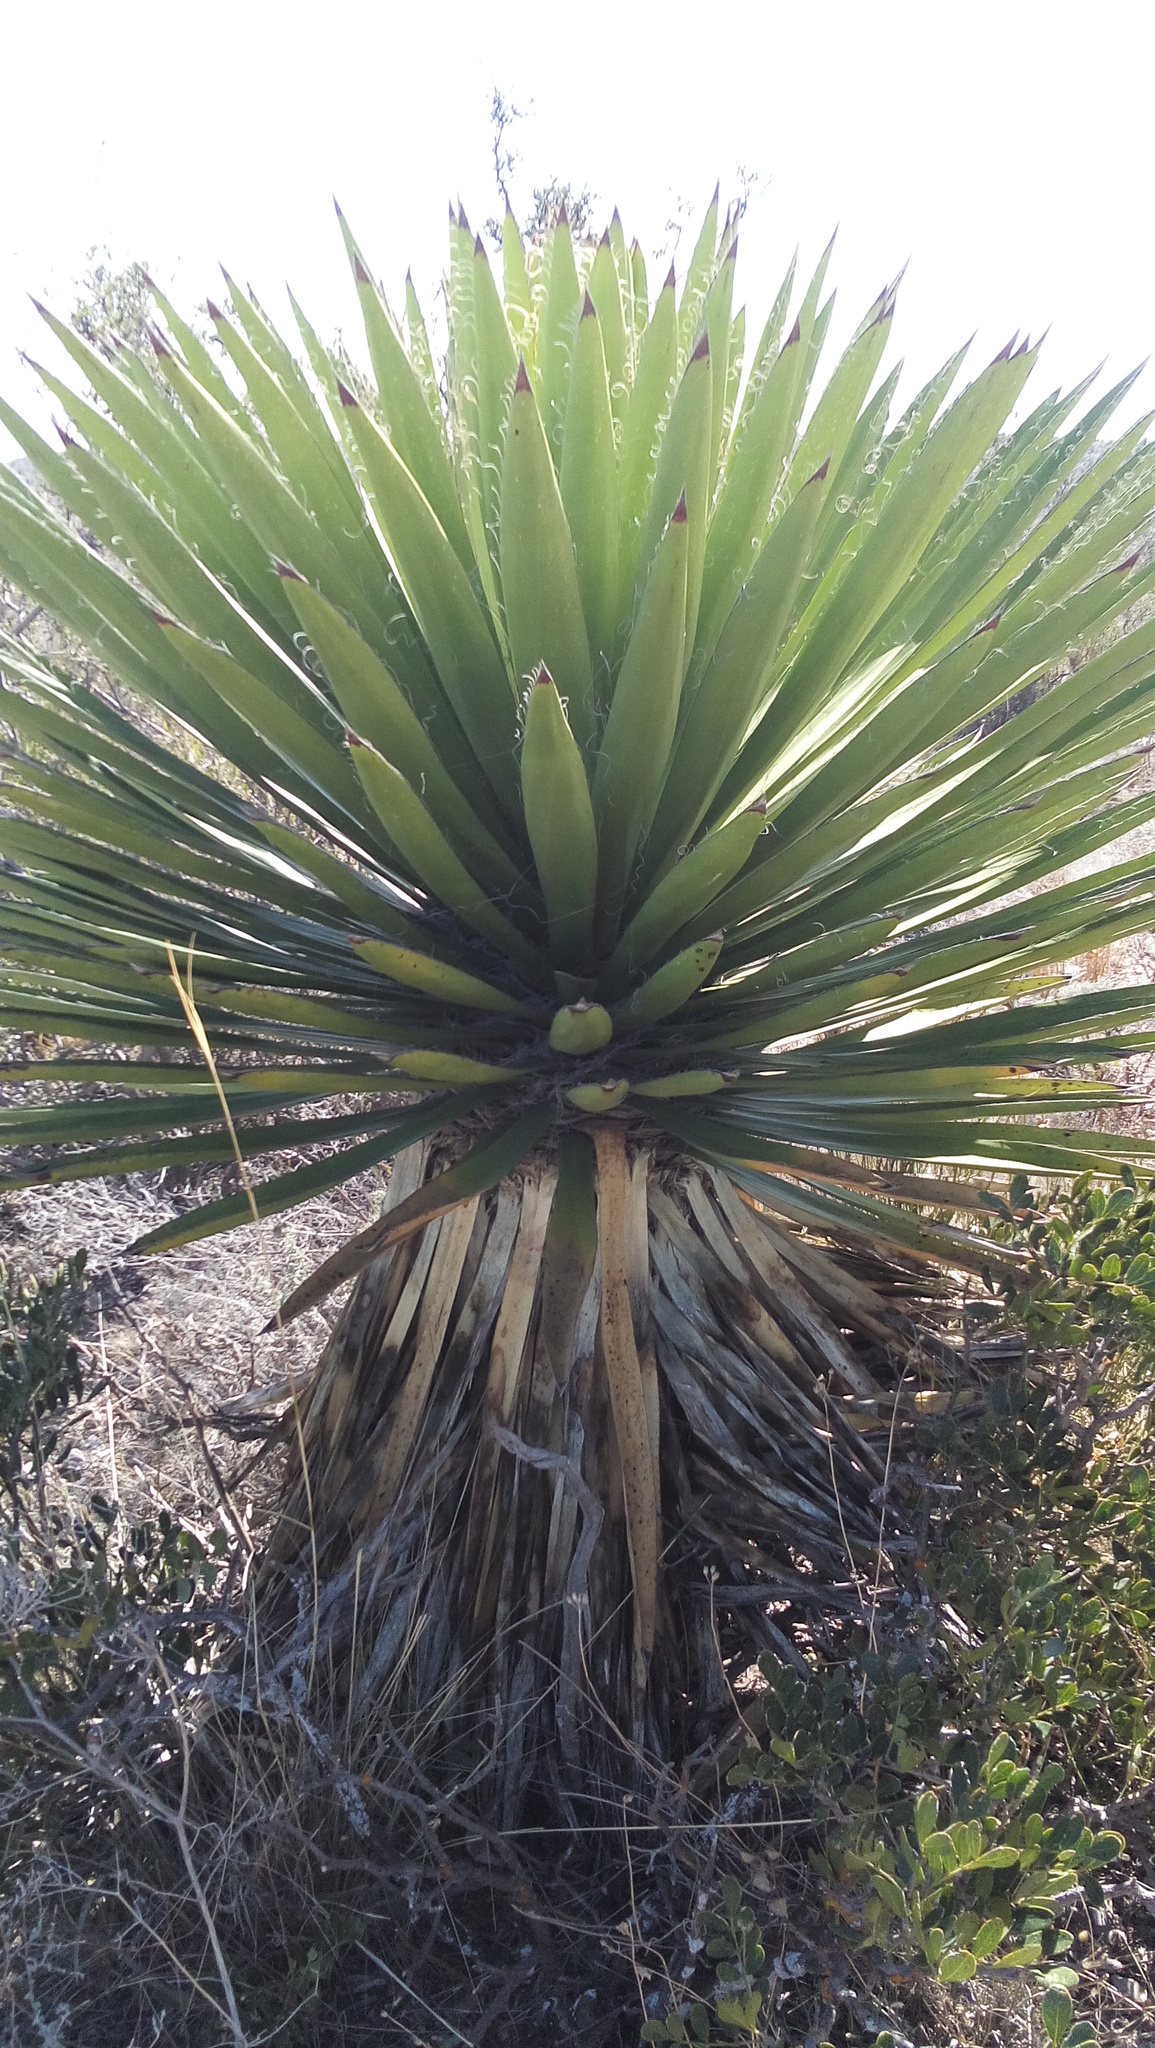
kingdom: Plantae
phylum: Tracheophyta
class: Liliopsida
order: Asparagales
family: Asparagaceae
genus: Yucca
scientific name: Yucca faxoniana
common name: Spanish dagger
